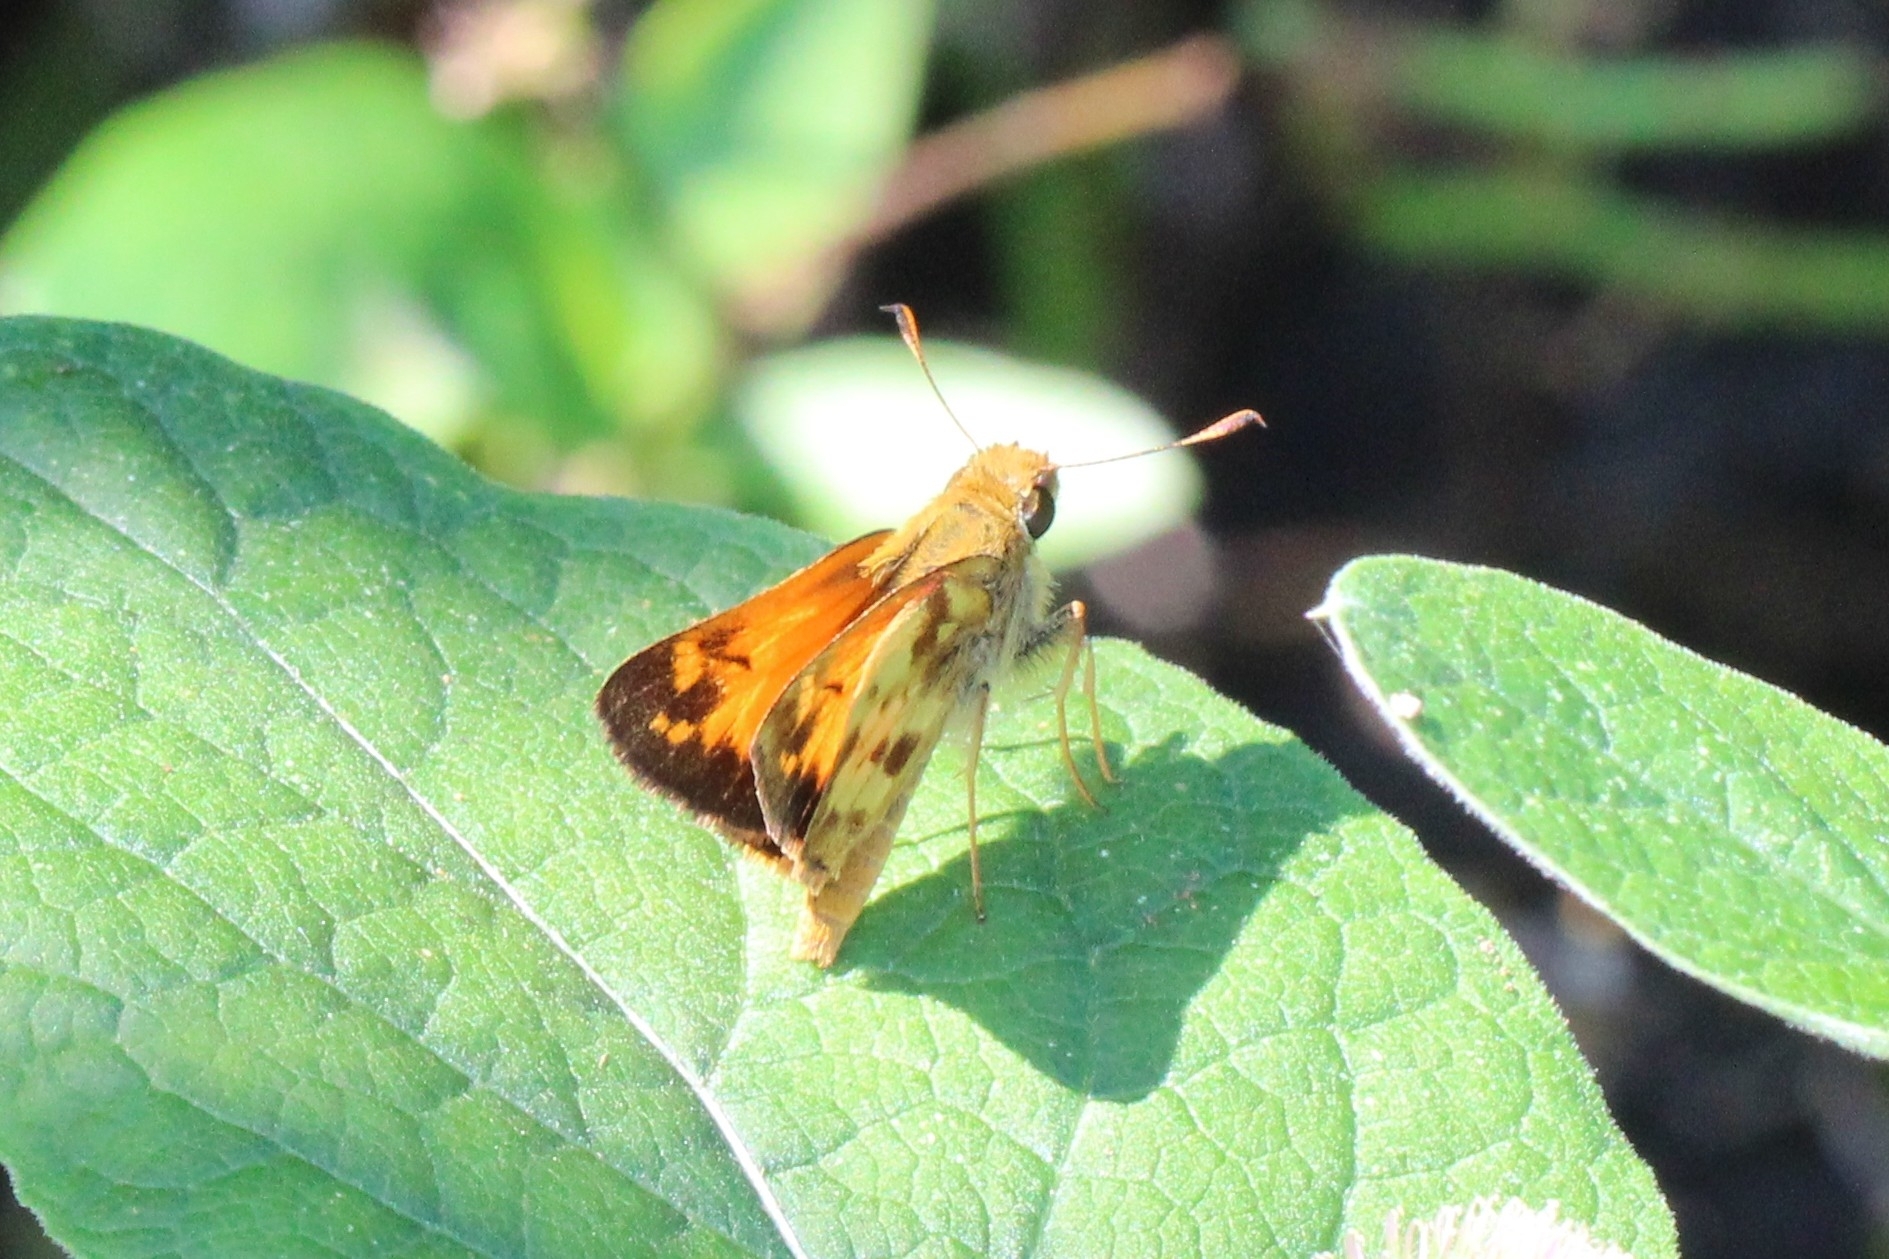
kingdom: Animalia
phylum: Arthropoda
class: Insecta
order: Lepidoptera
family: Hesperiidae
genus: Lon
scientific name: Lon zabulon
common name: Zabulon skipper
